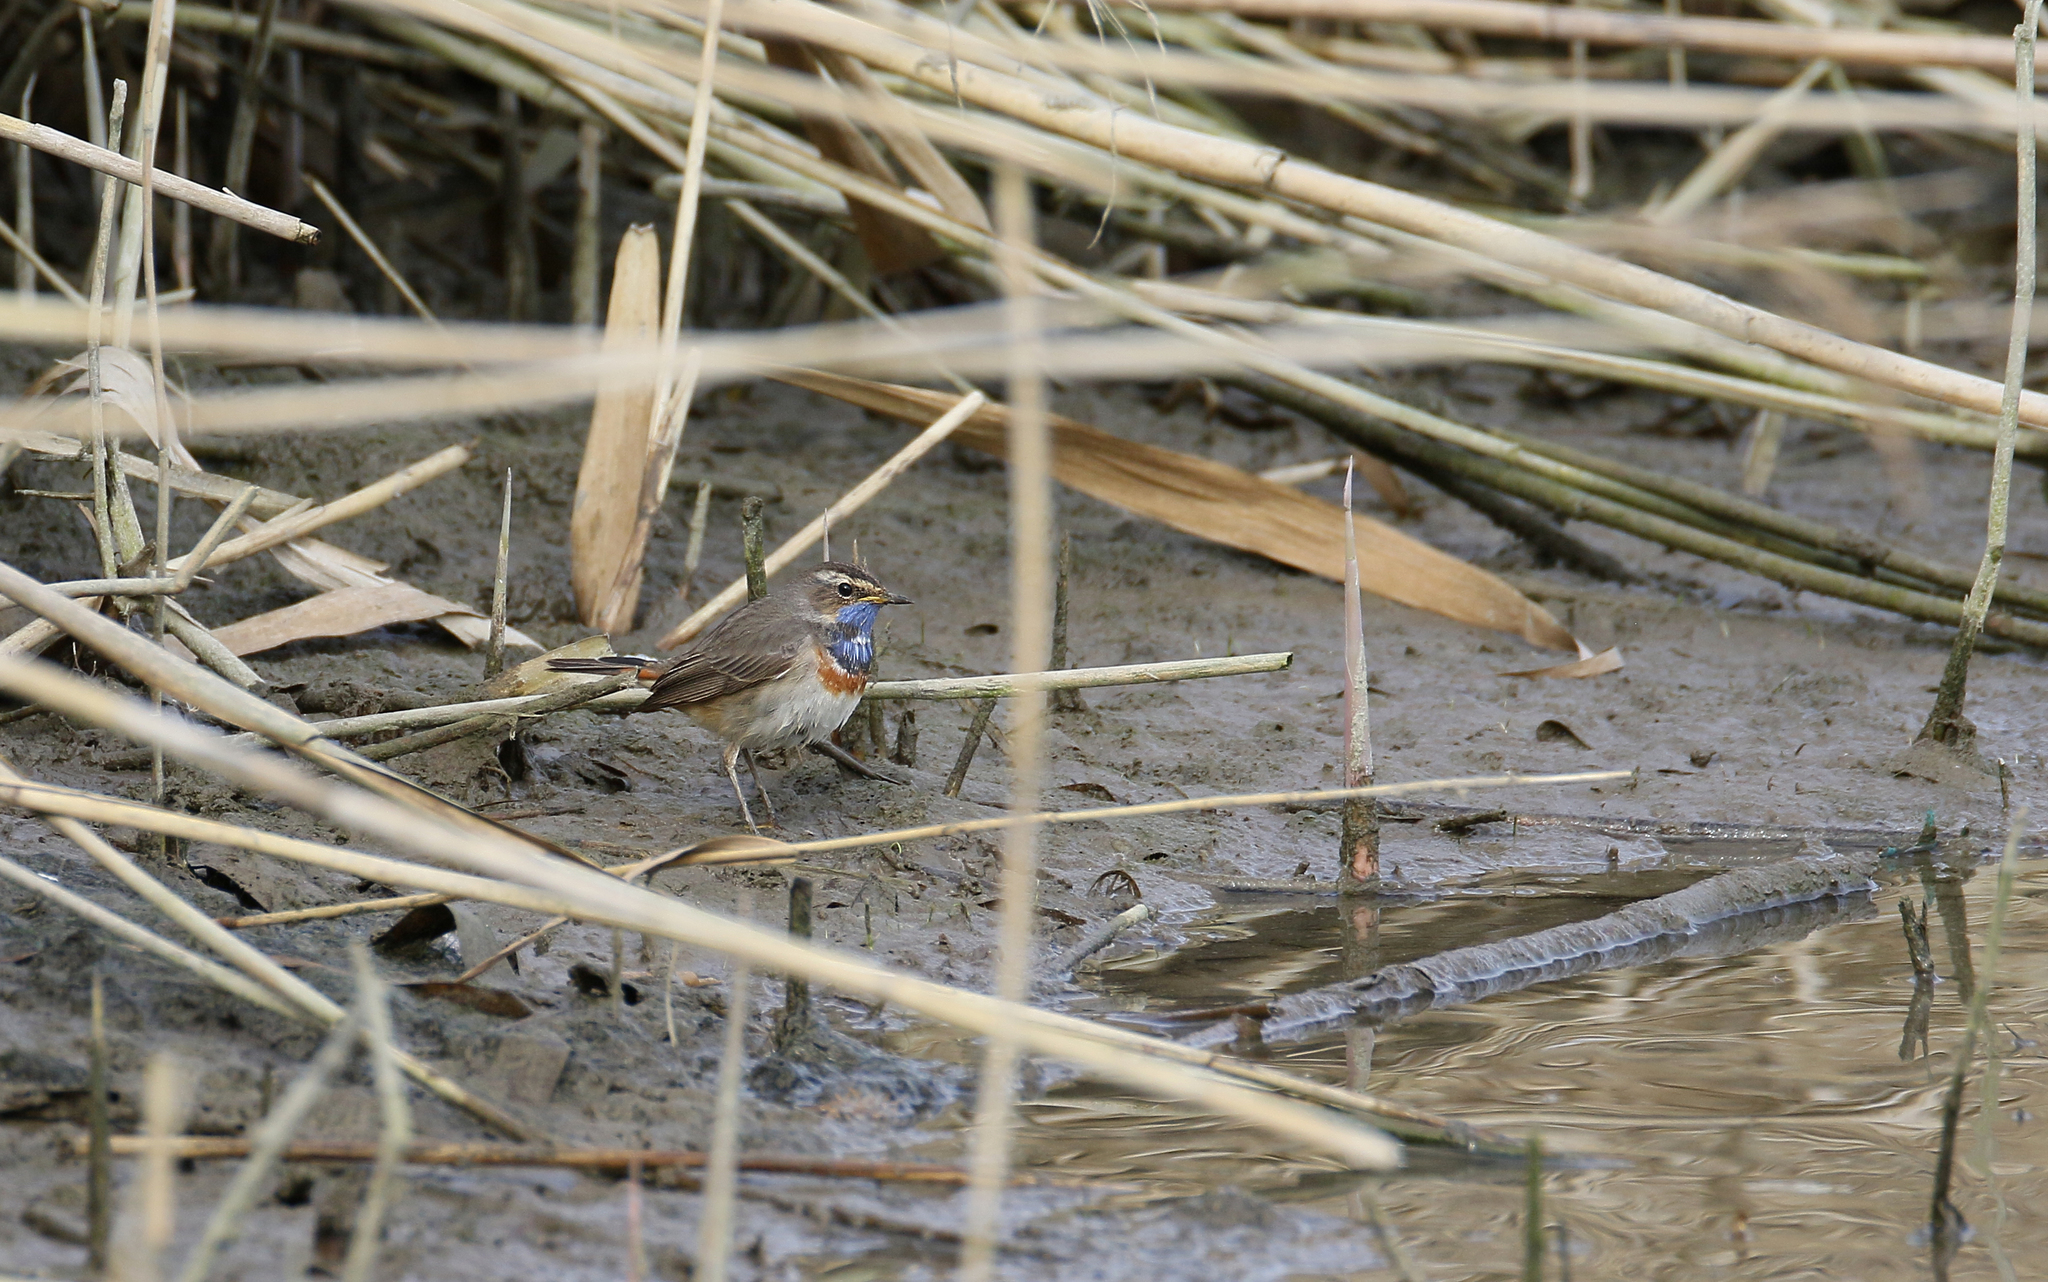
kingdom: Animalia
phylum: Chordata
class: Aves
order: Passeriformes
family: Muscicapidae
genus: Luscinia
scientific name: Luscinia svecica
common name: Bluethroat
